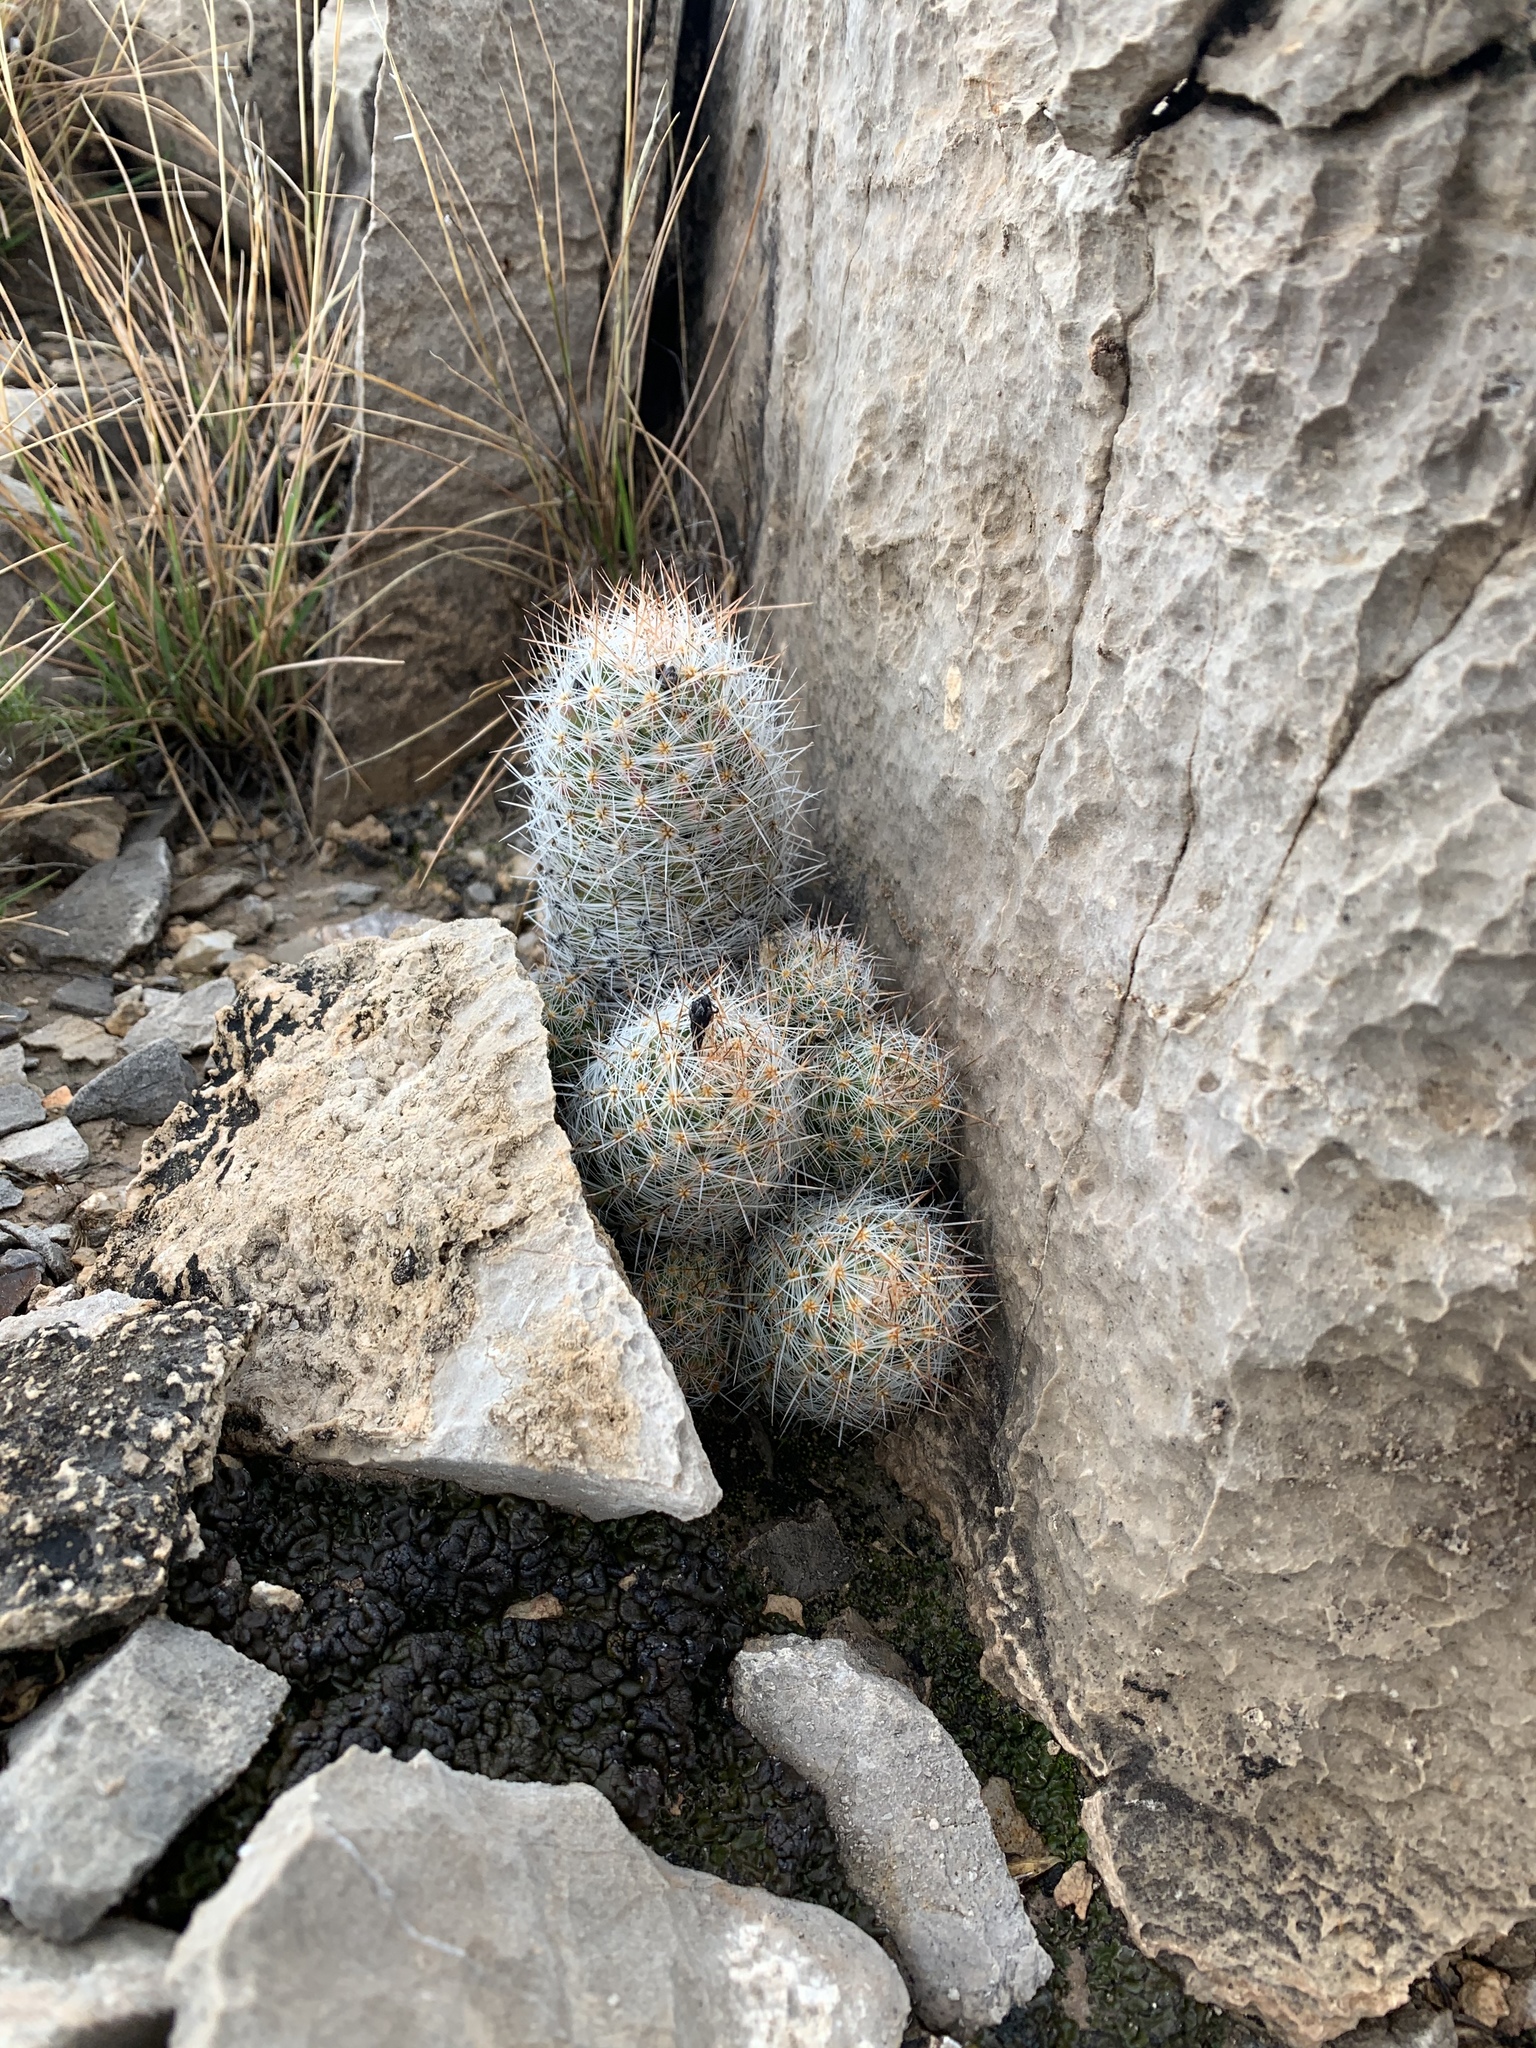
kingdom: Plantae
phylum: Tracheophyta
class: Magnoliopsida
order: Caryophyllales
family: Cactaceae
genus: Pelecyphora
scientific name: Pelecyphora tuberculosa
